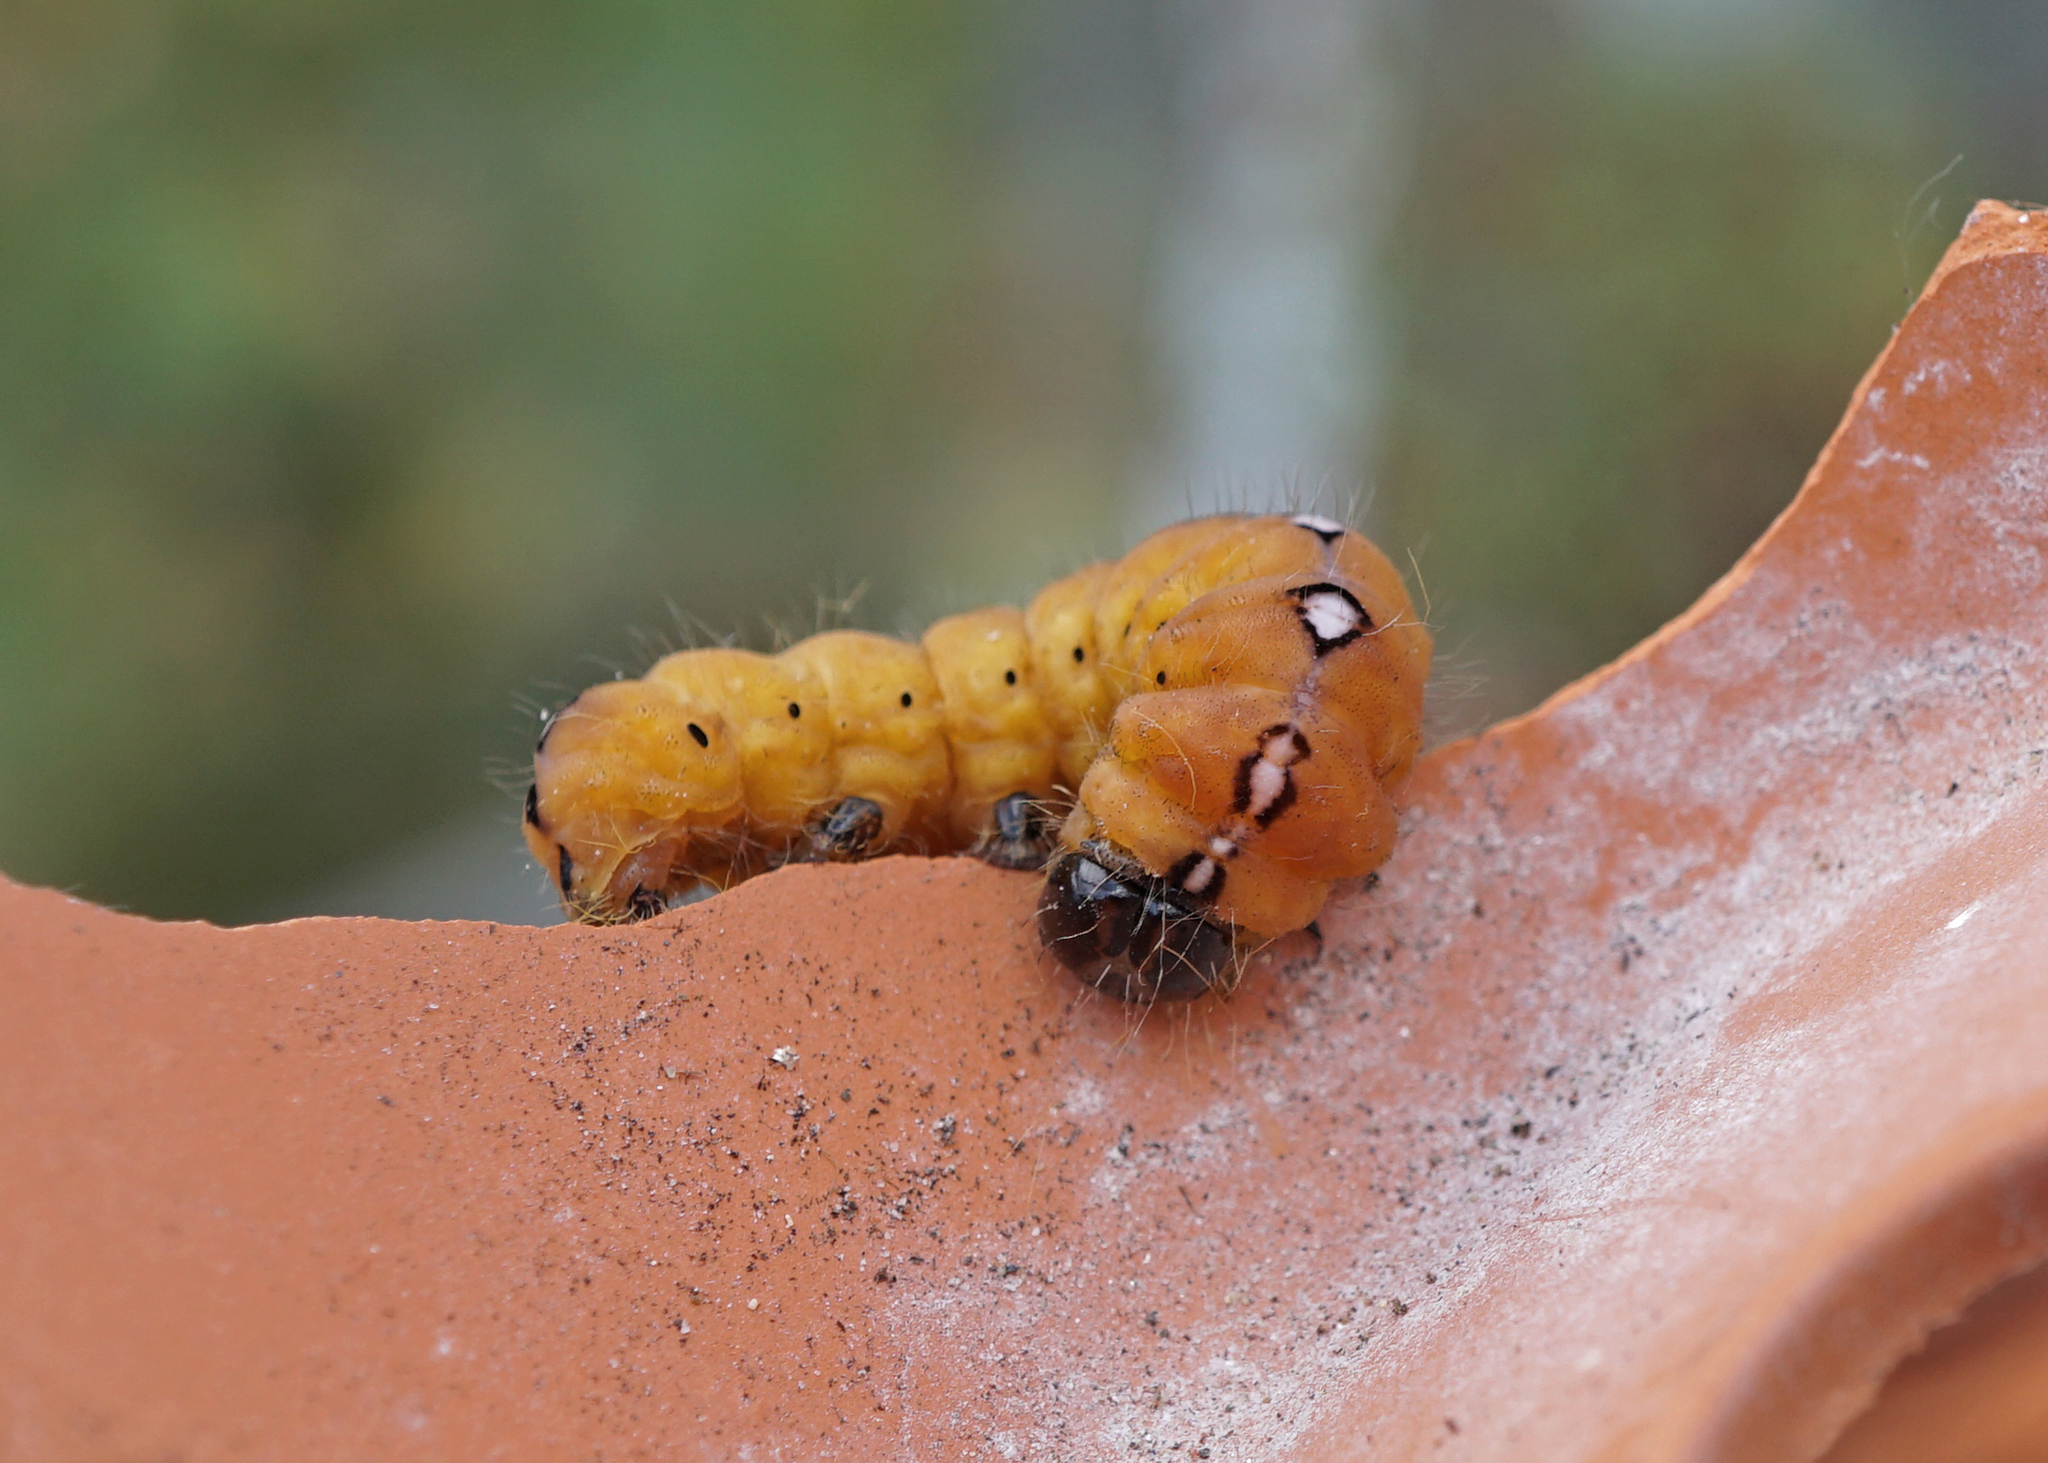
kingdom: Animalia
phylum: Arthropoda
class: Insecta
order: Lepidoptera
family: Noctuidae
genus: Acronicta
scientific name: Acronicta aceris
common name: Sycamore
